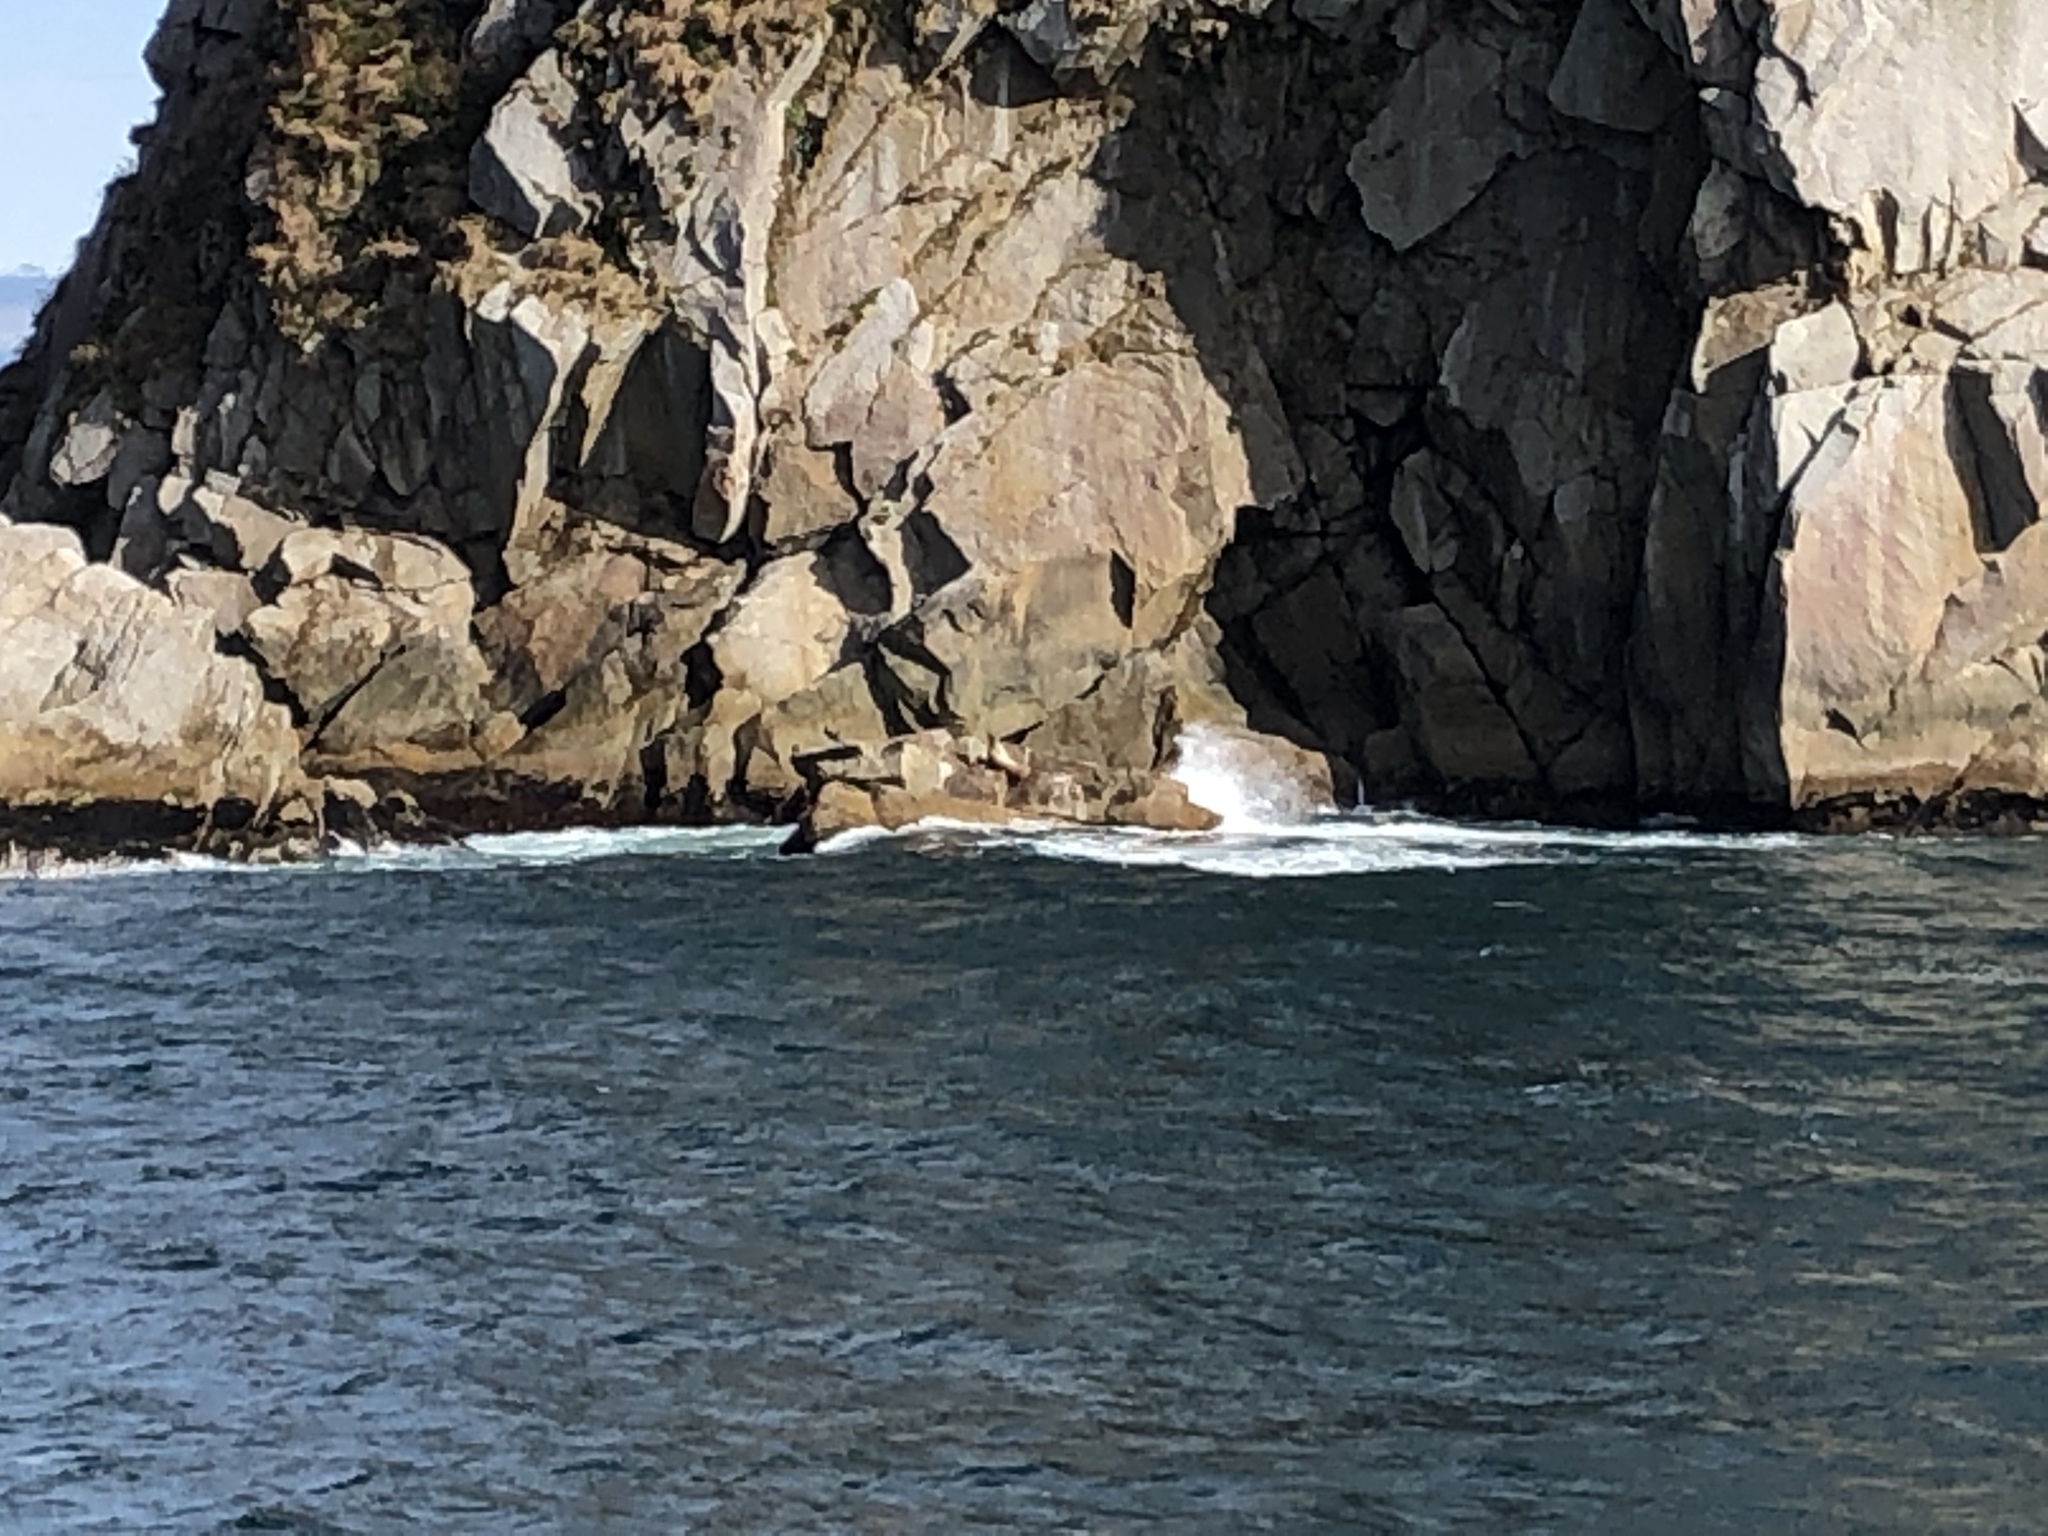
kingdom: Animalia
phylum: Chordata
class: Mammalia
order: Carnivora
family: Otariidae
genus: Eumetopias
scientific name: Eumetopias jubatus
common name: Steller sea lion
